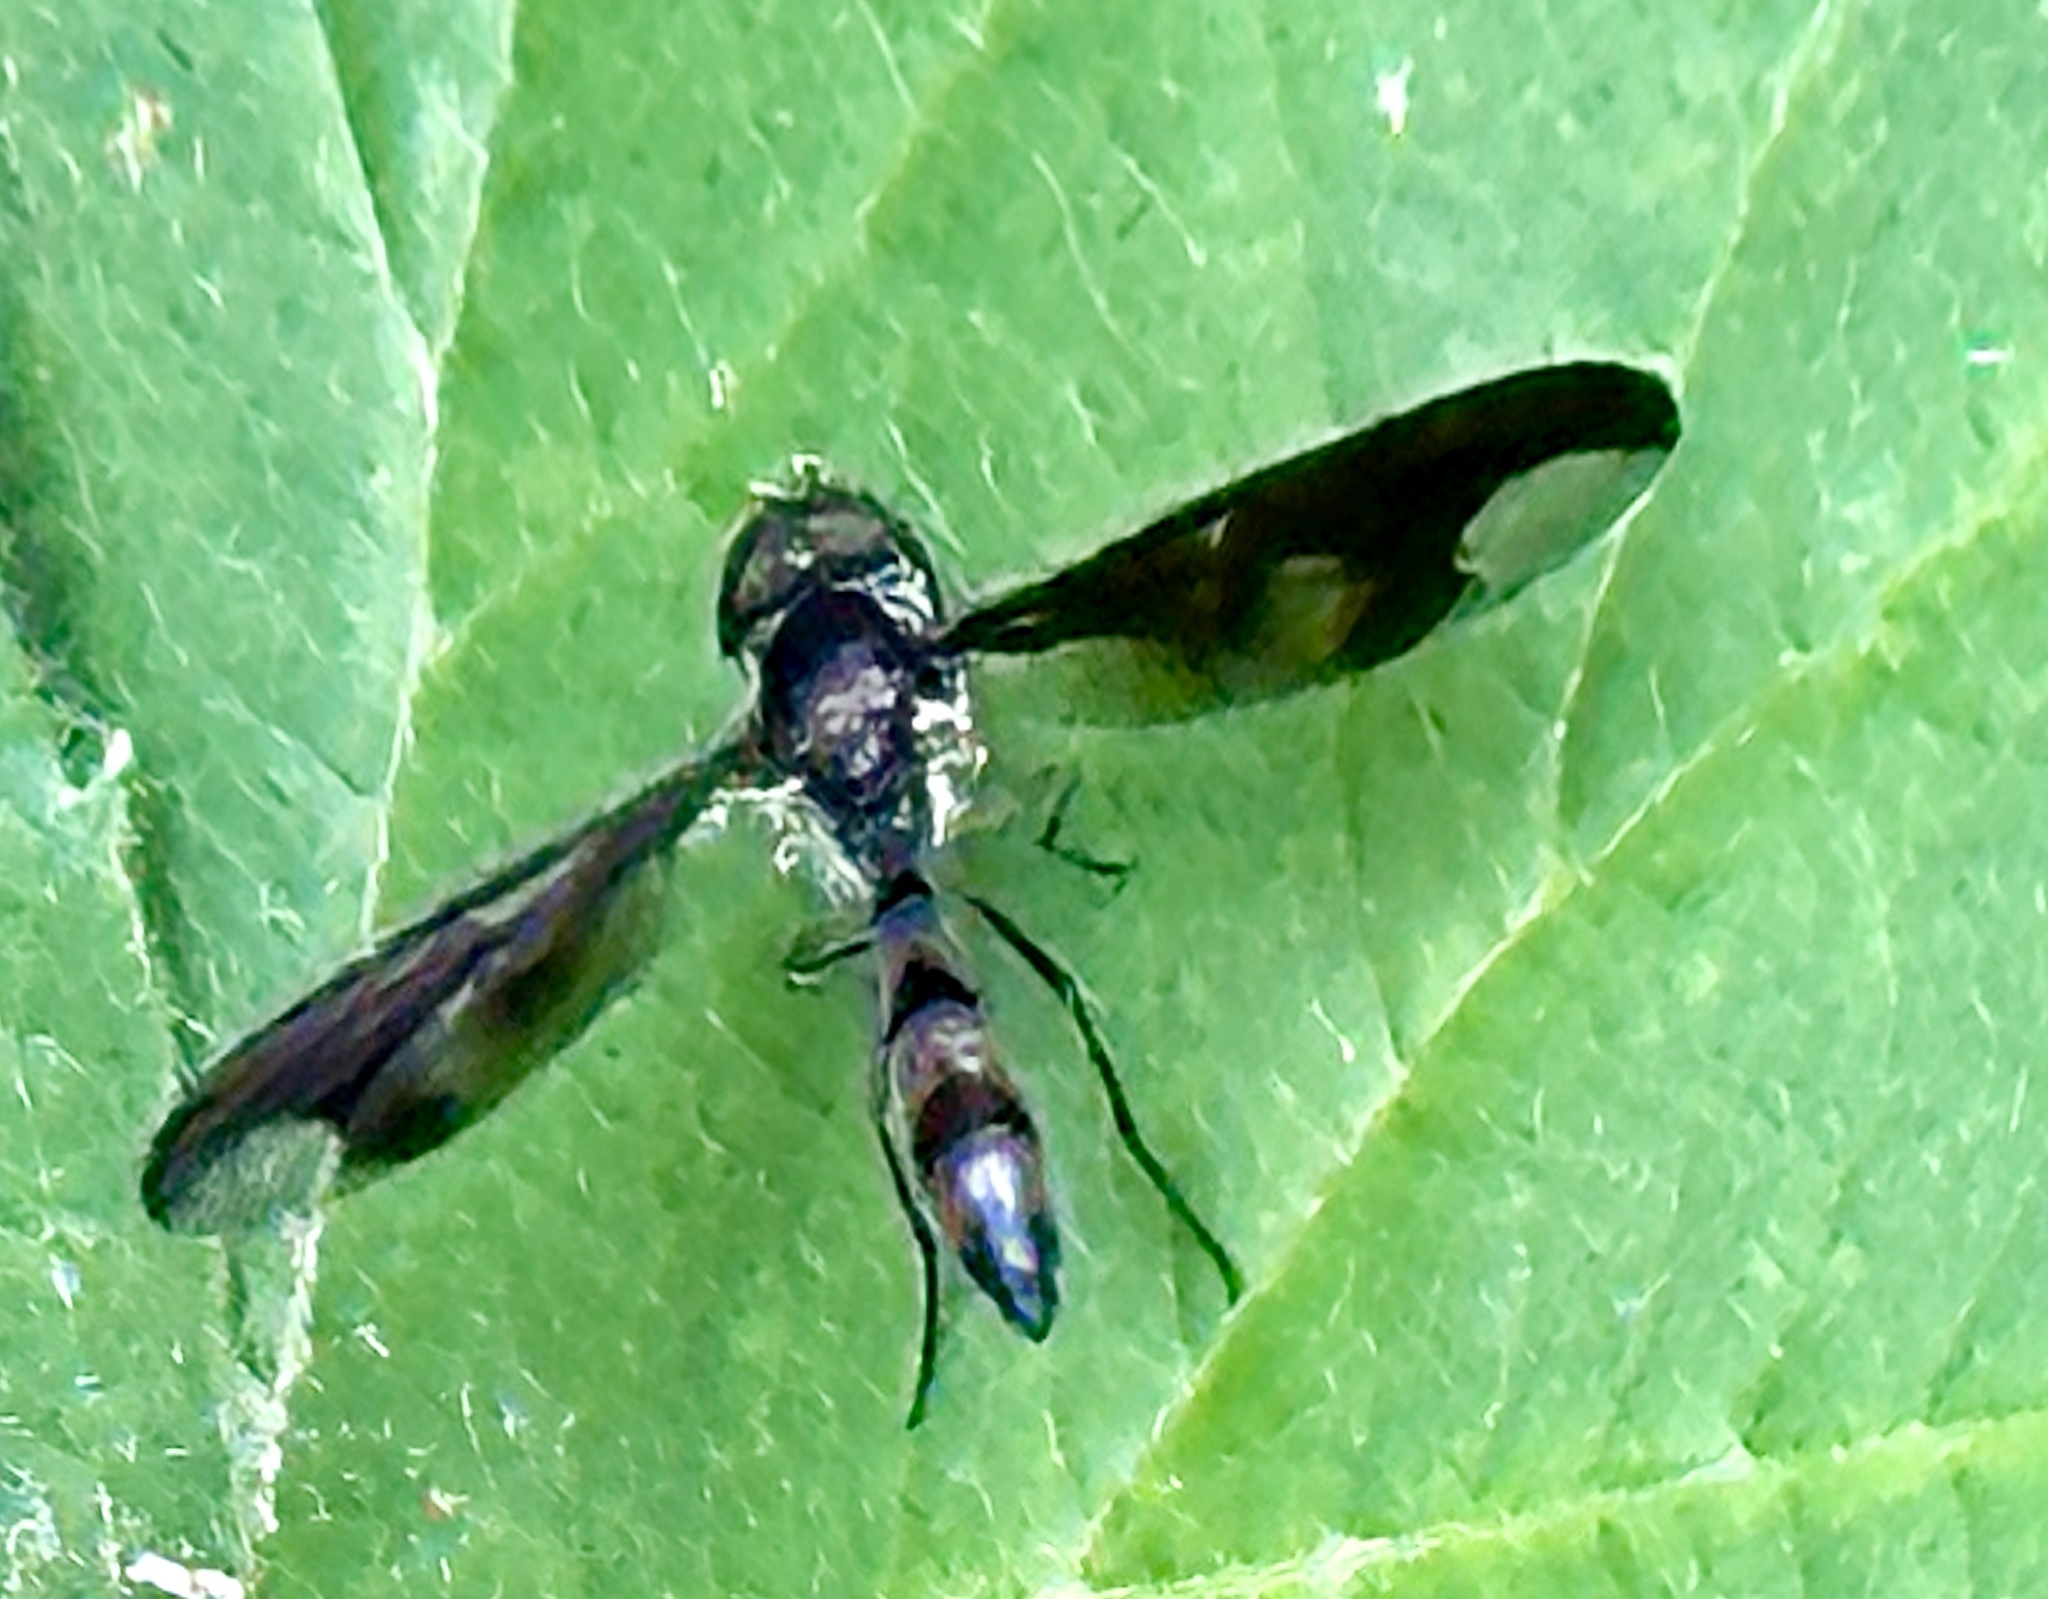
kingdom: Animalia
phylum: Arthropoda
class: Insecta
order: Diptera
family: Syrphidae
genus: Ocyptamus
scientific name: Ocyptamus fuscipennis
